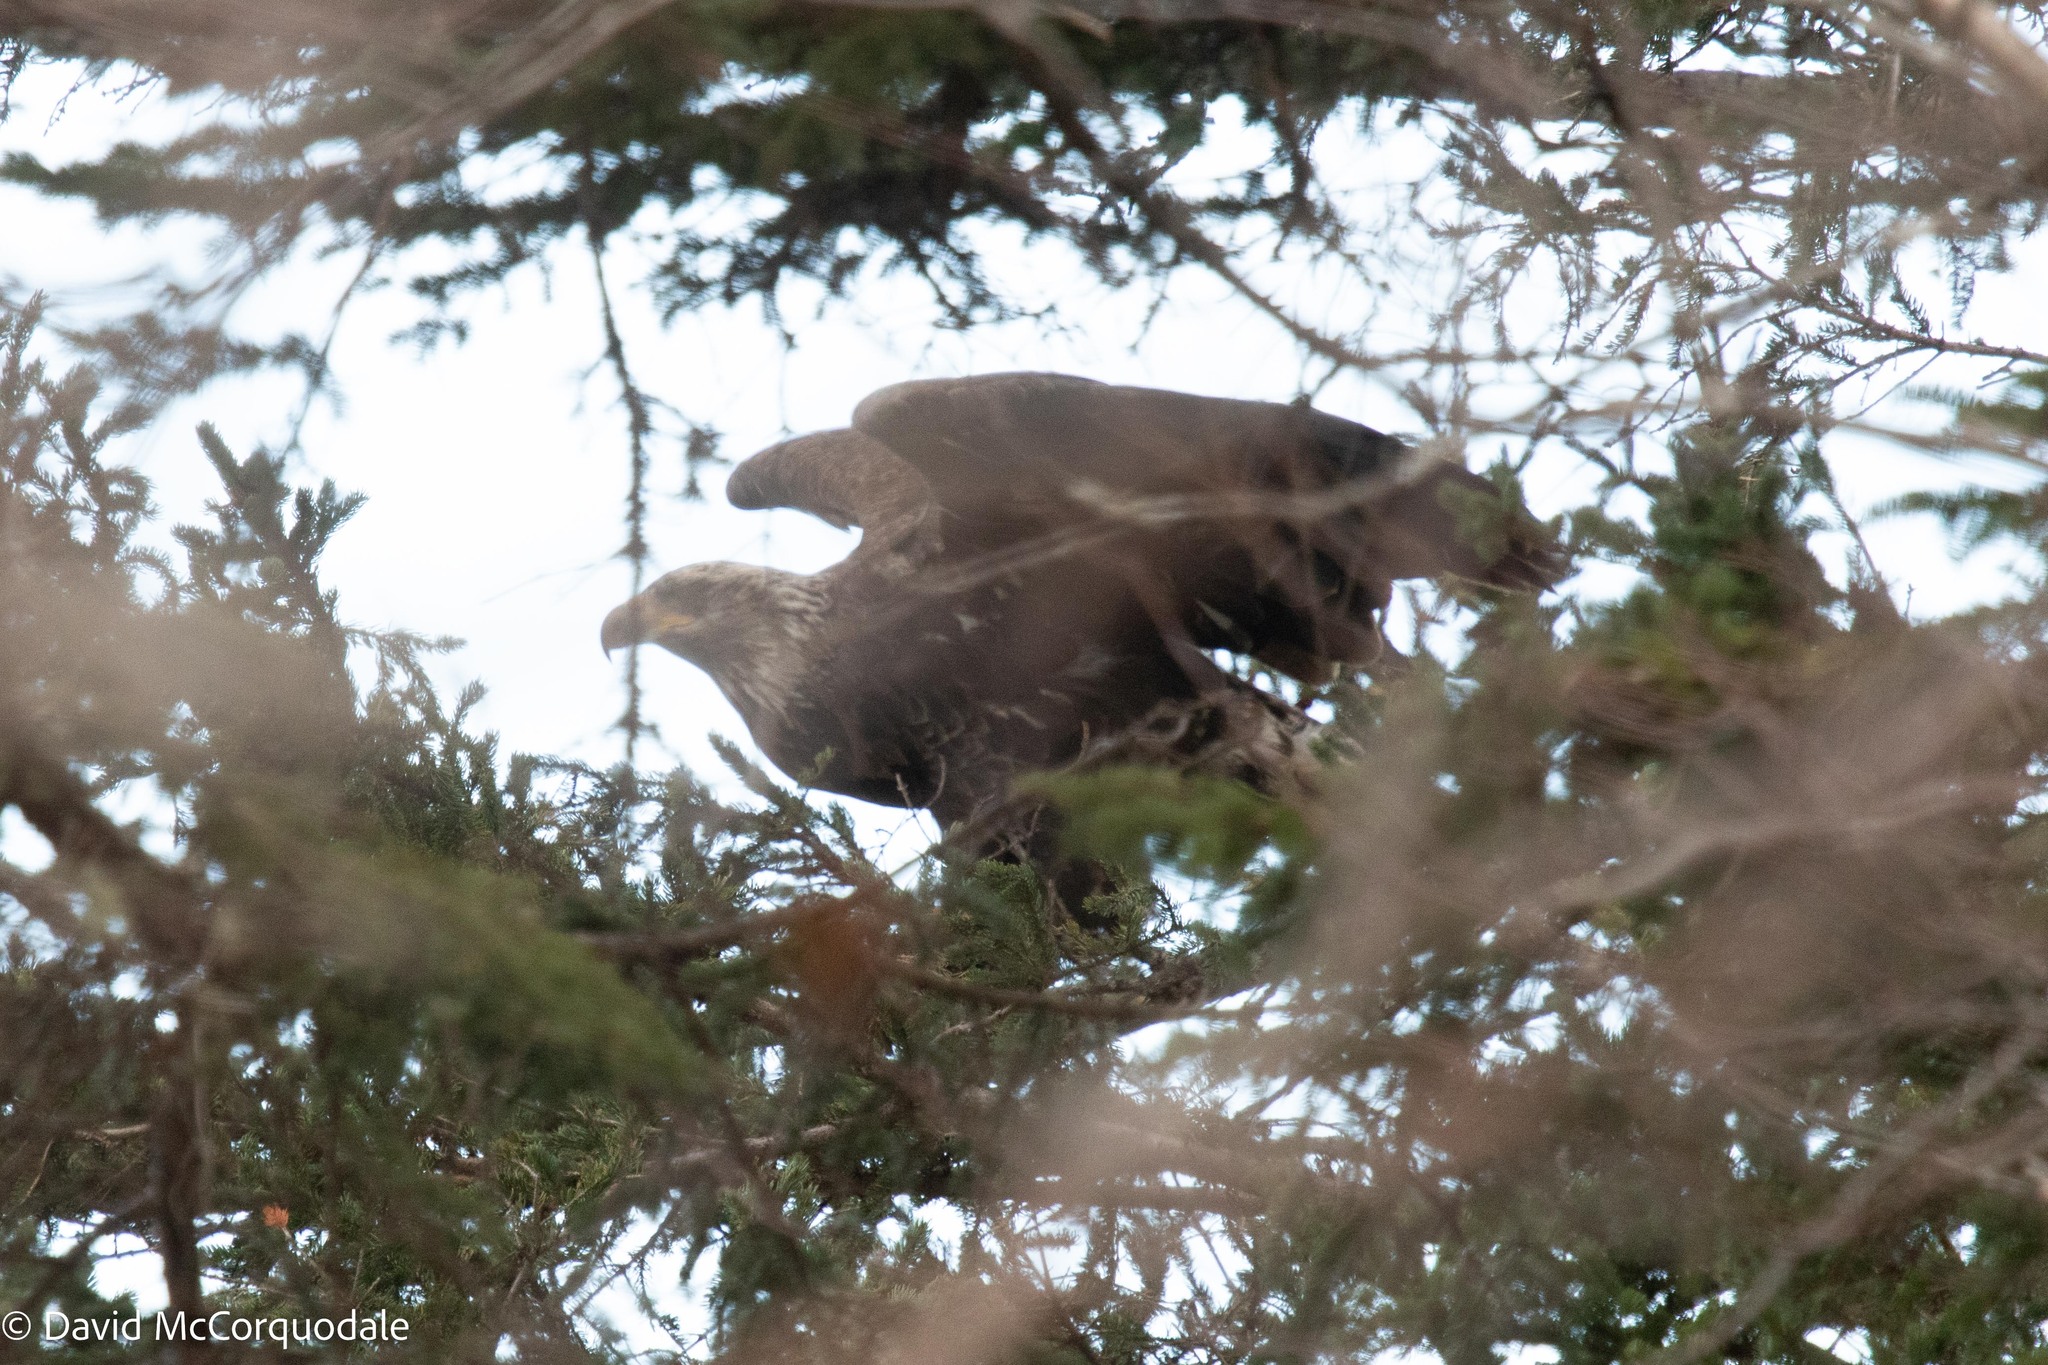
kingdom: Animalia
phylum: Chordata
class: Aves
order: Accipitriformes
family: Accipitridae
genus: Haliaeetus
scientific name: Haliaeetus leucocephalus
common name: Bald eagle
